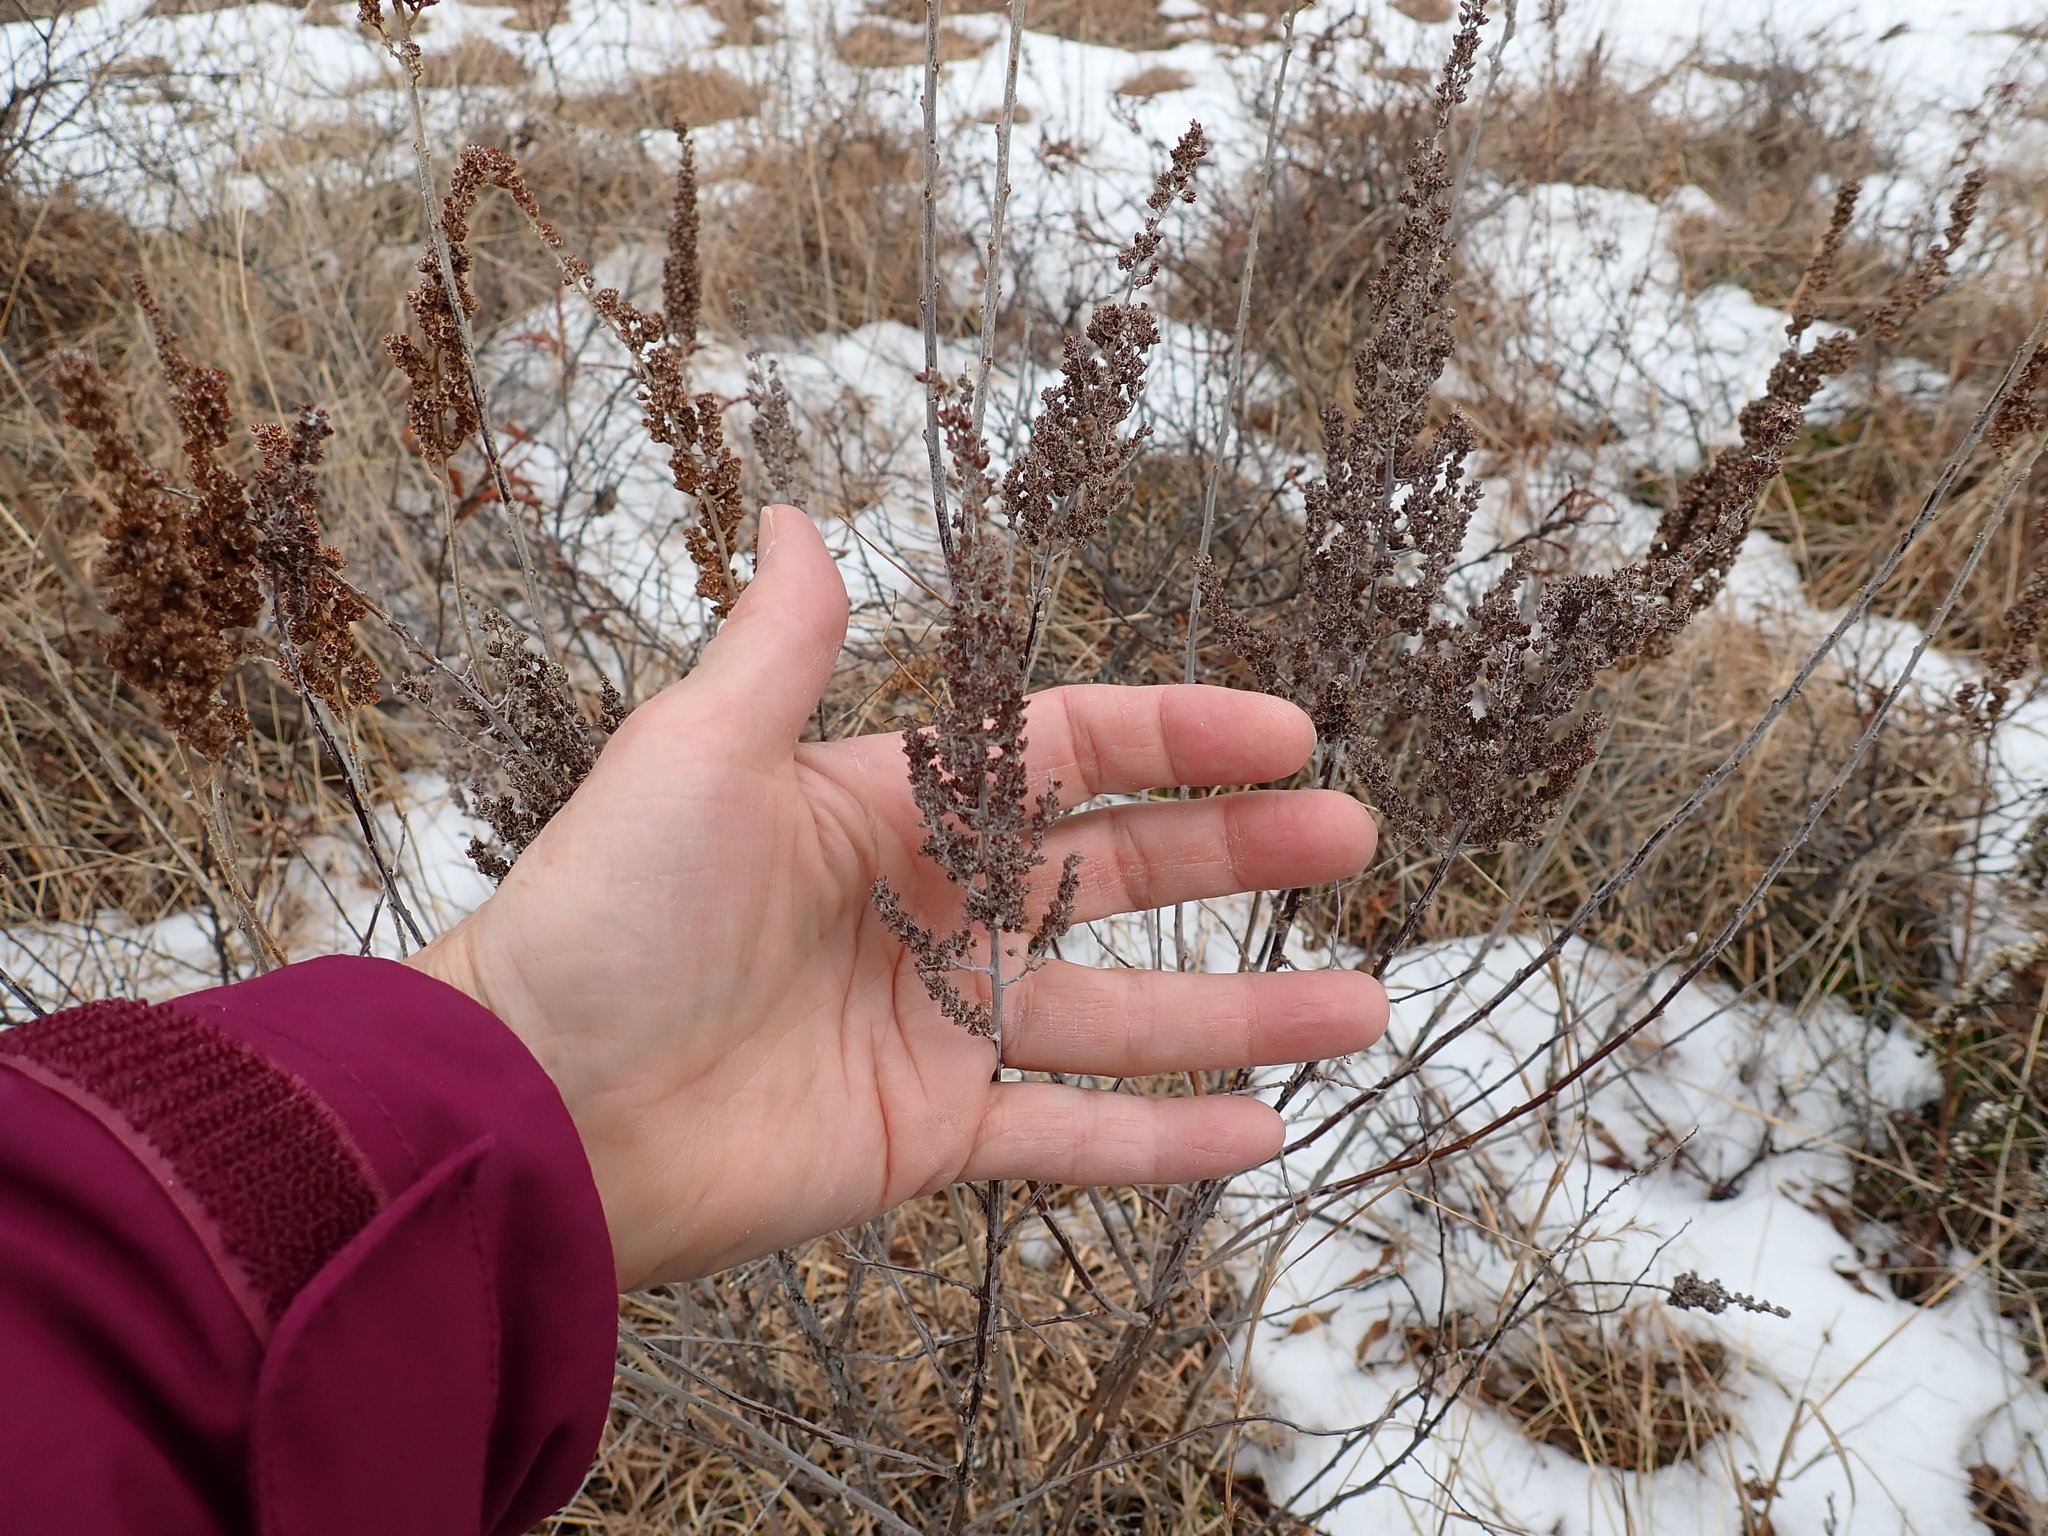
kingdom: Plantae
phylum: Tracheophyta
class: Magnoliopsida
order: Rosales
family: Rosaceae
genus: Spiraea
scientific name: Spiraea tomentosa
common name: Hardhack
